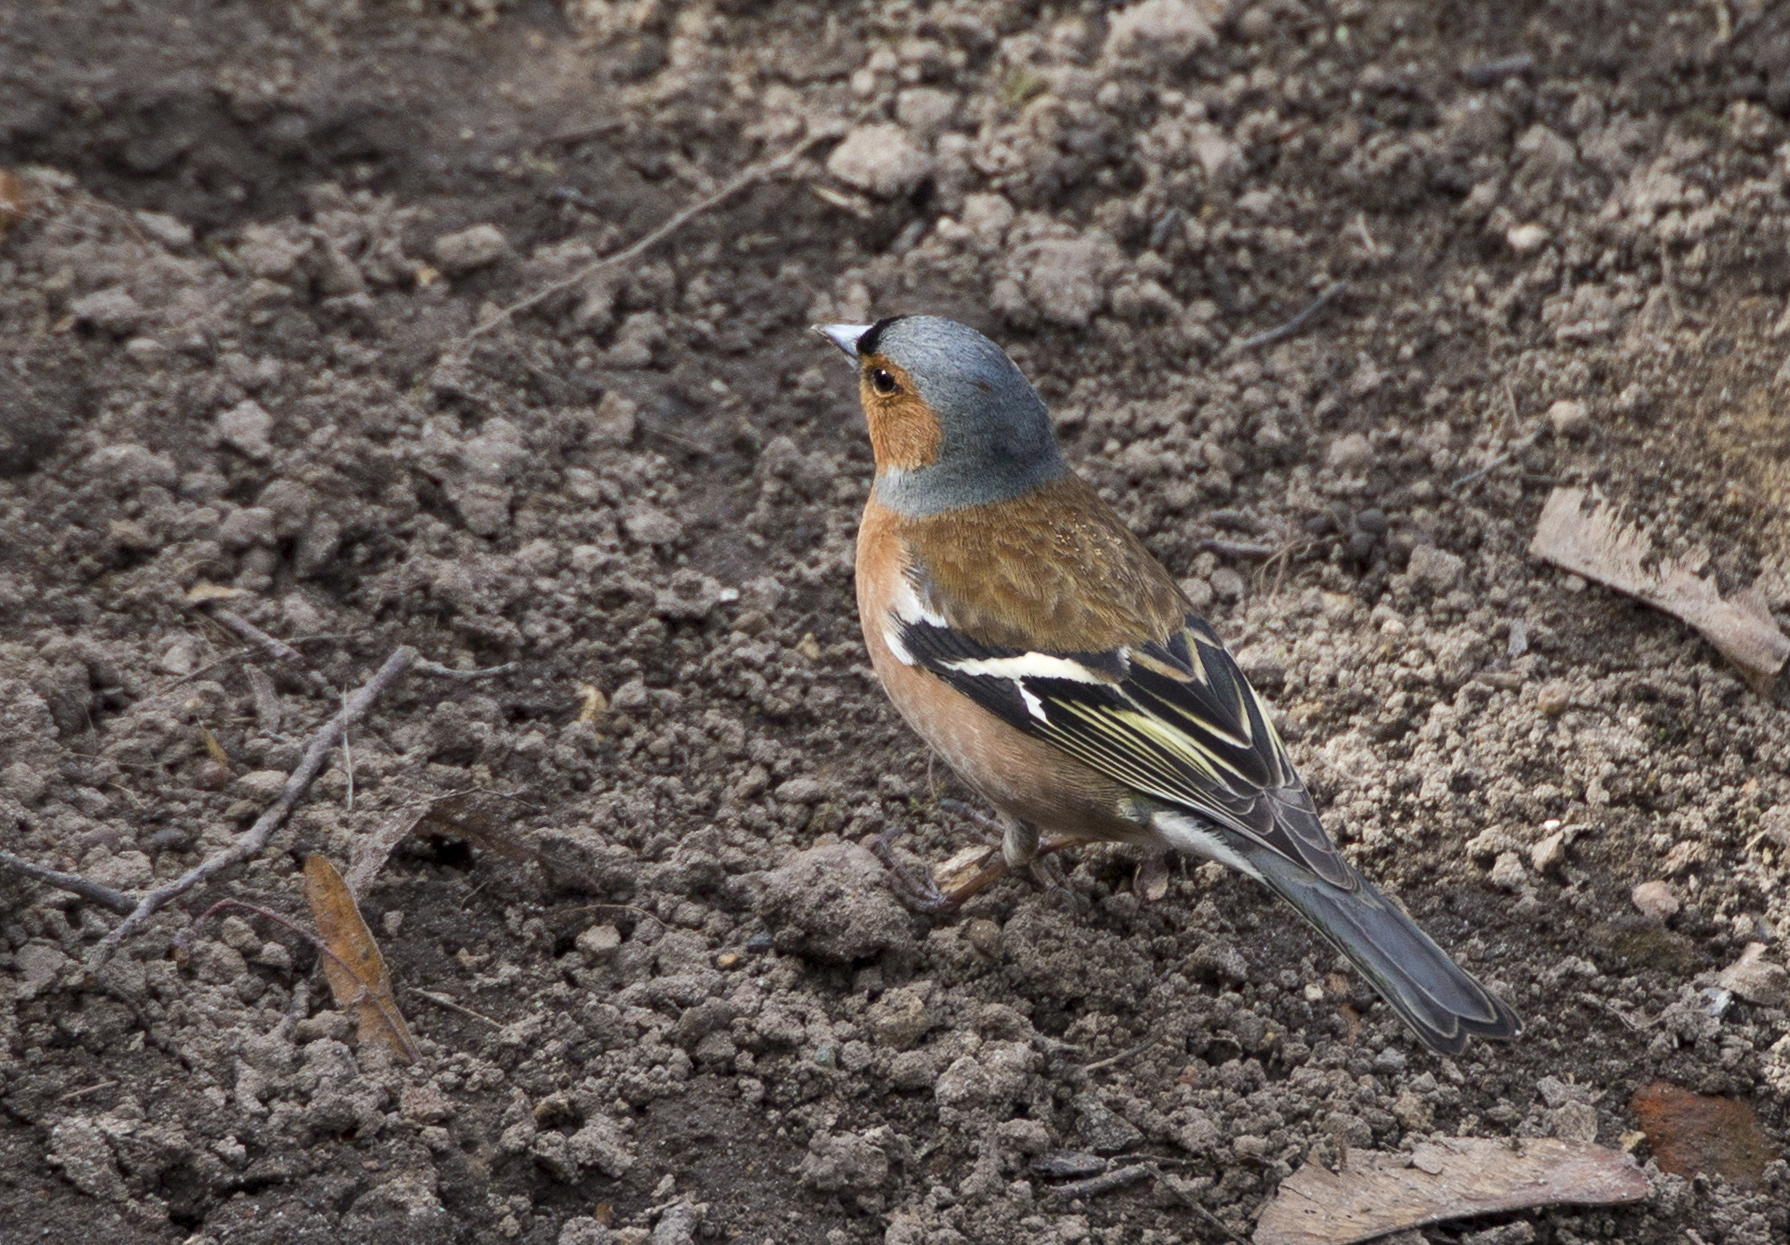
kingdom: Animalia
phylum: Chordata
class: Aves
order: Passeriformes
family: Fringillidae
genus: Fringilla
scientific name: Fringilla coelebs
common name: Common chaffinch
